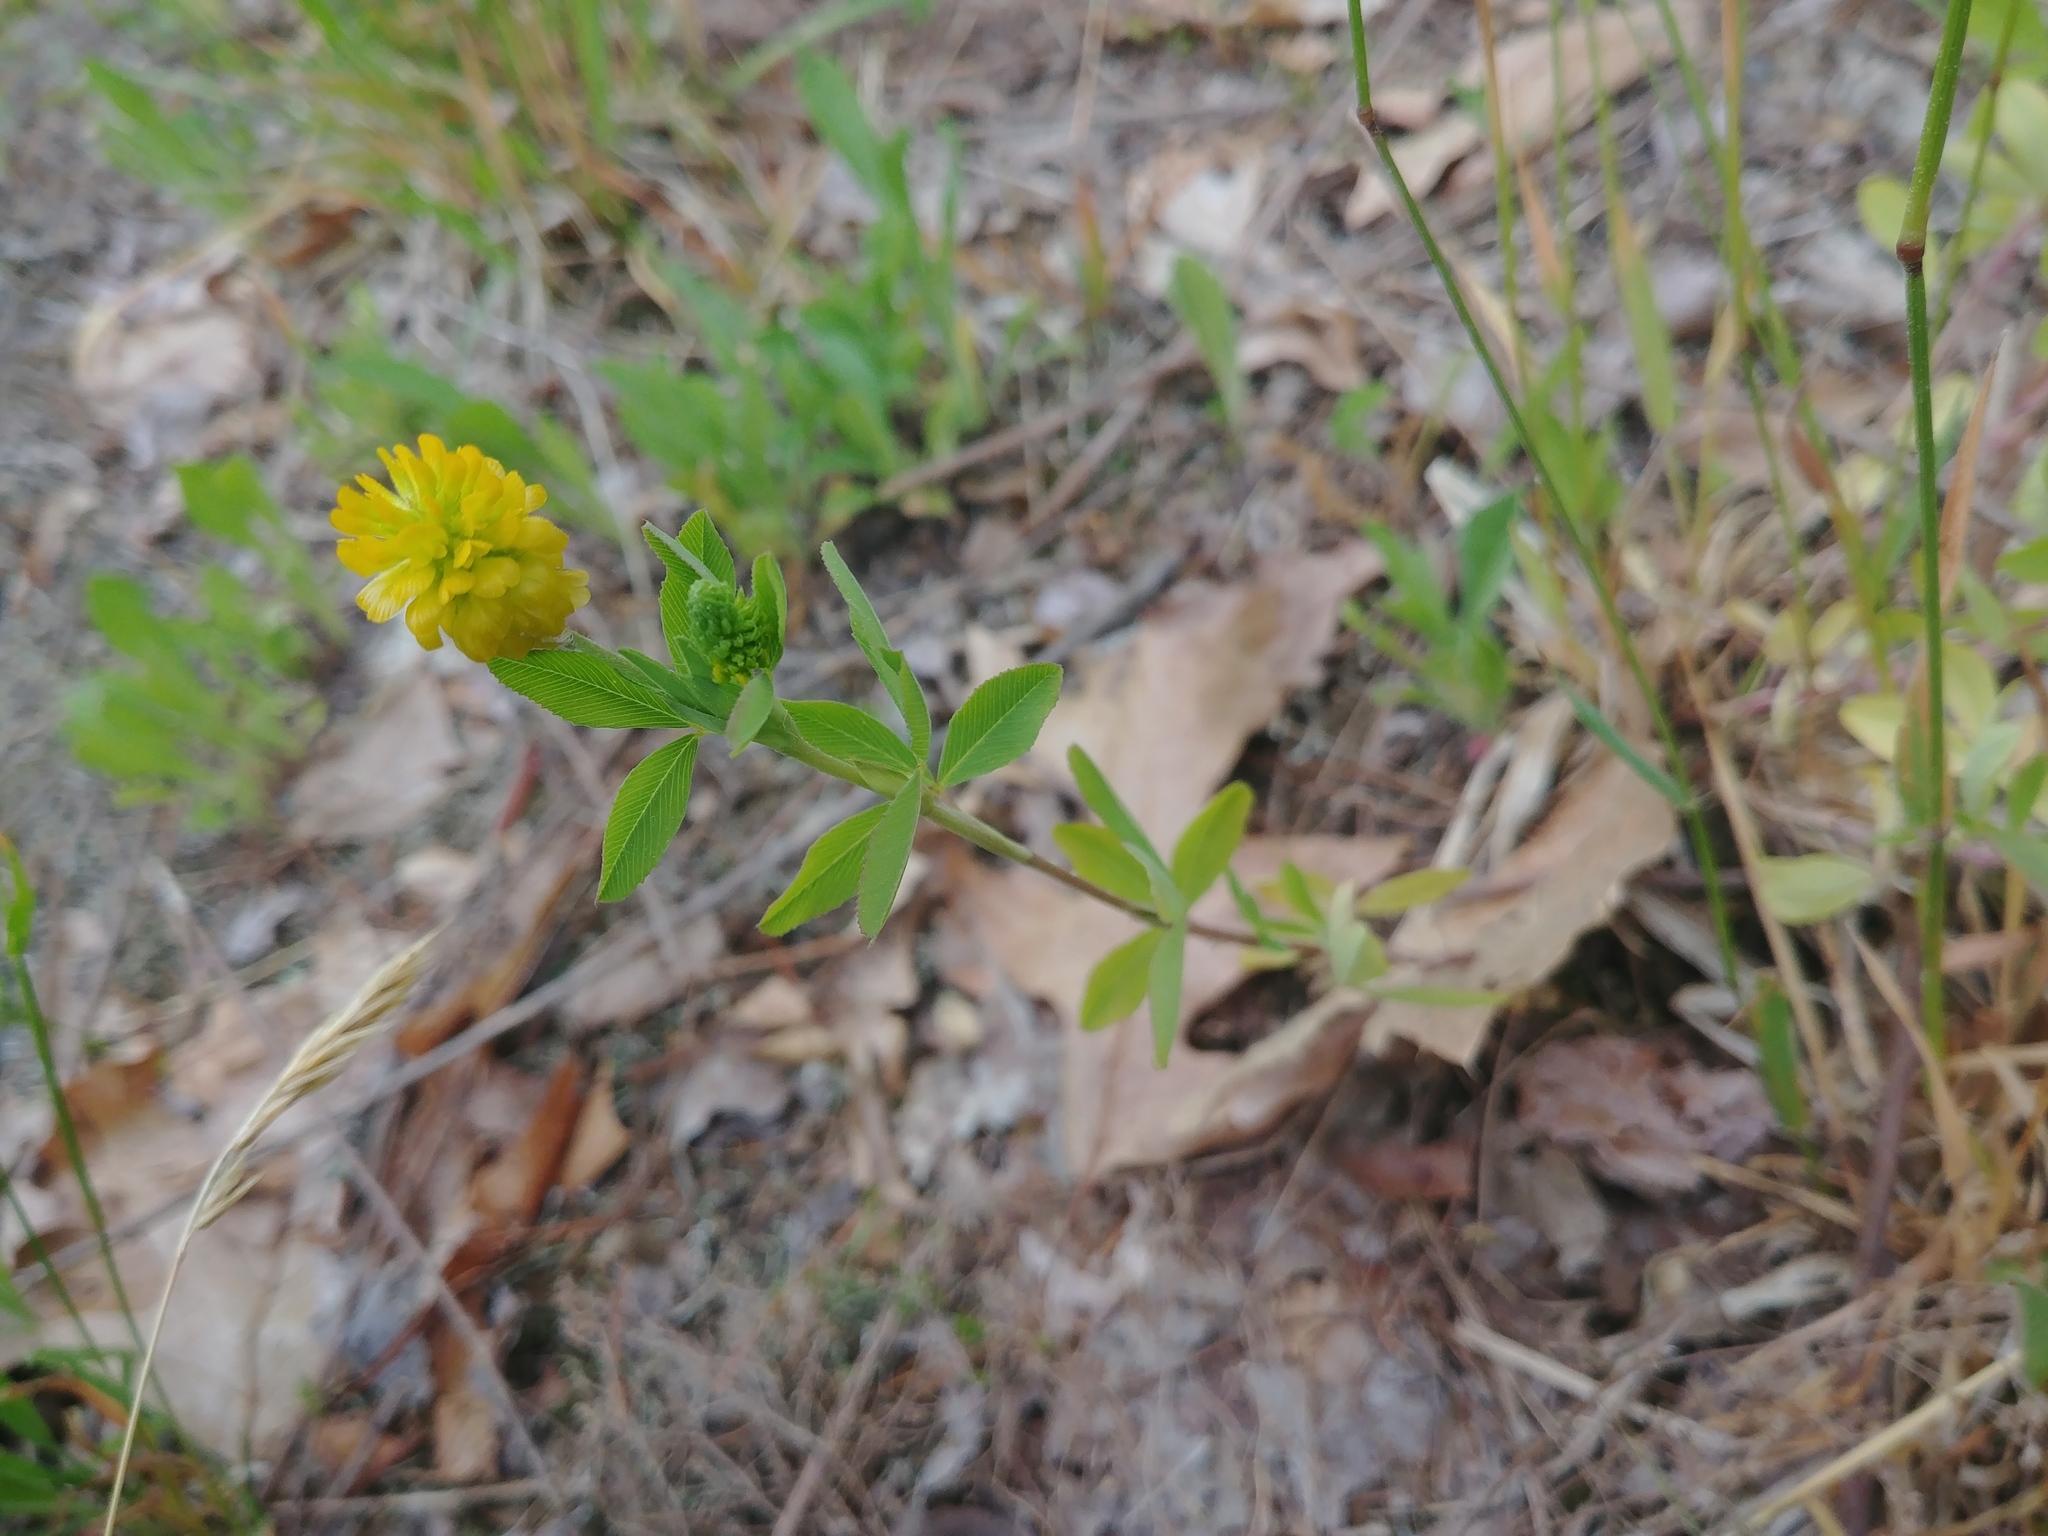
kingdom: Plantae
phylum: Tracheophyta
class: Magnoliopsida
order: Fabales
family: Fabaceae
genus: Trifolium
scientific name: Trifolium aureum
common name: Golden clover
